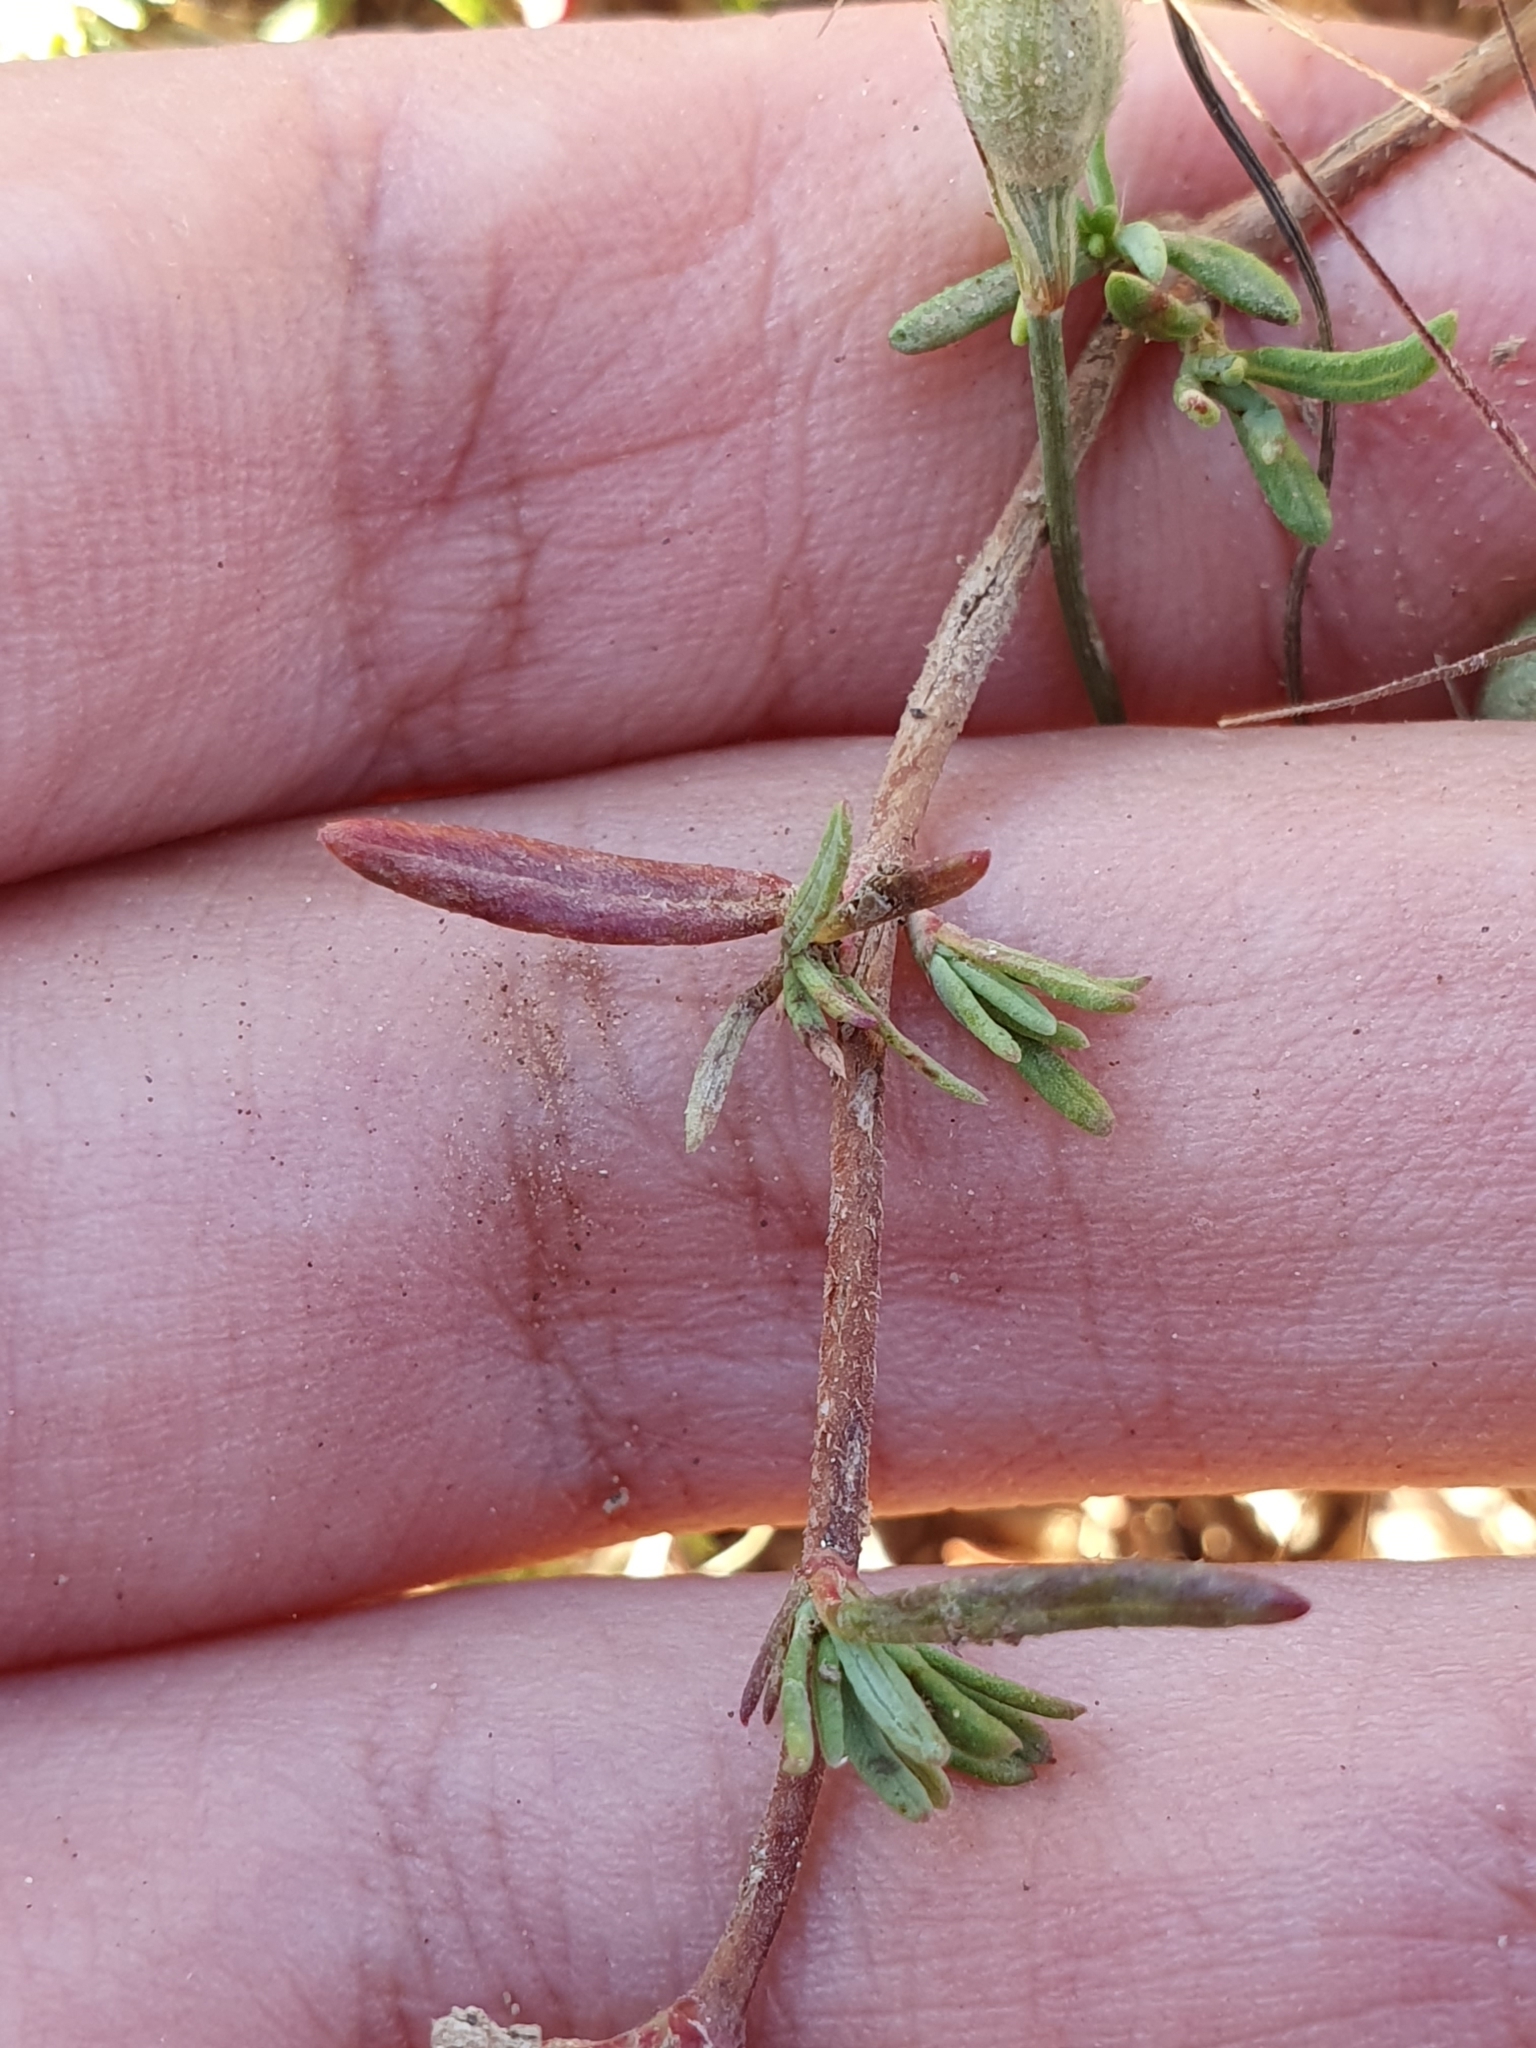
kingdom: Plantae
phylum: Tracheophyta
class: Magnoliopsida
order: Malvales
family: Cistaceae
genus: Fumana
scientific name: Fumana laevis
